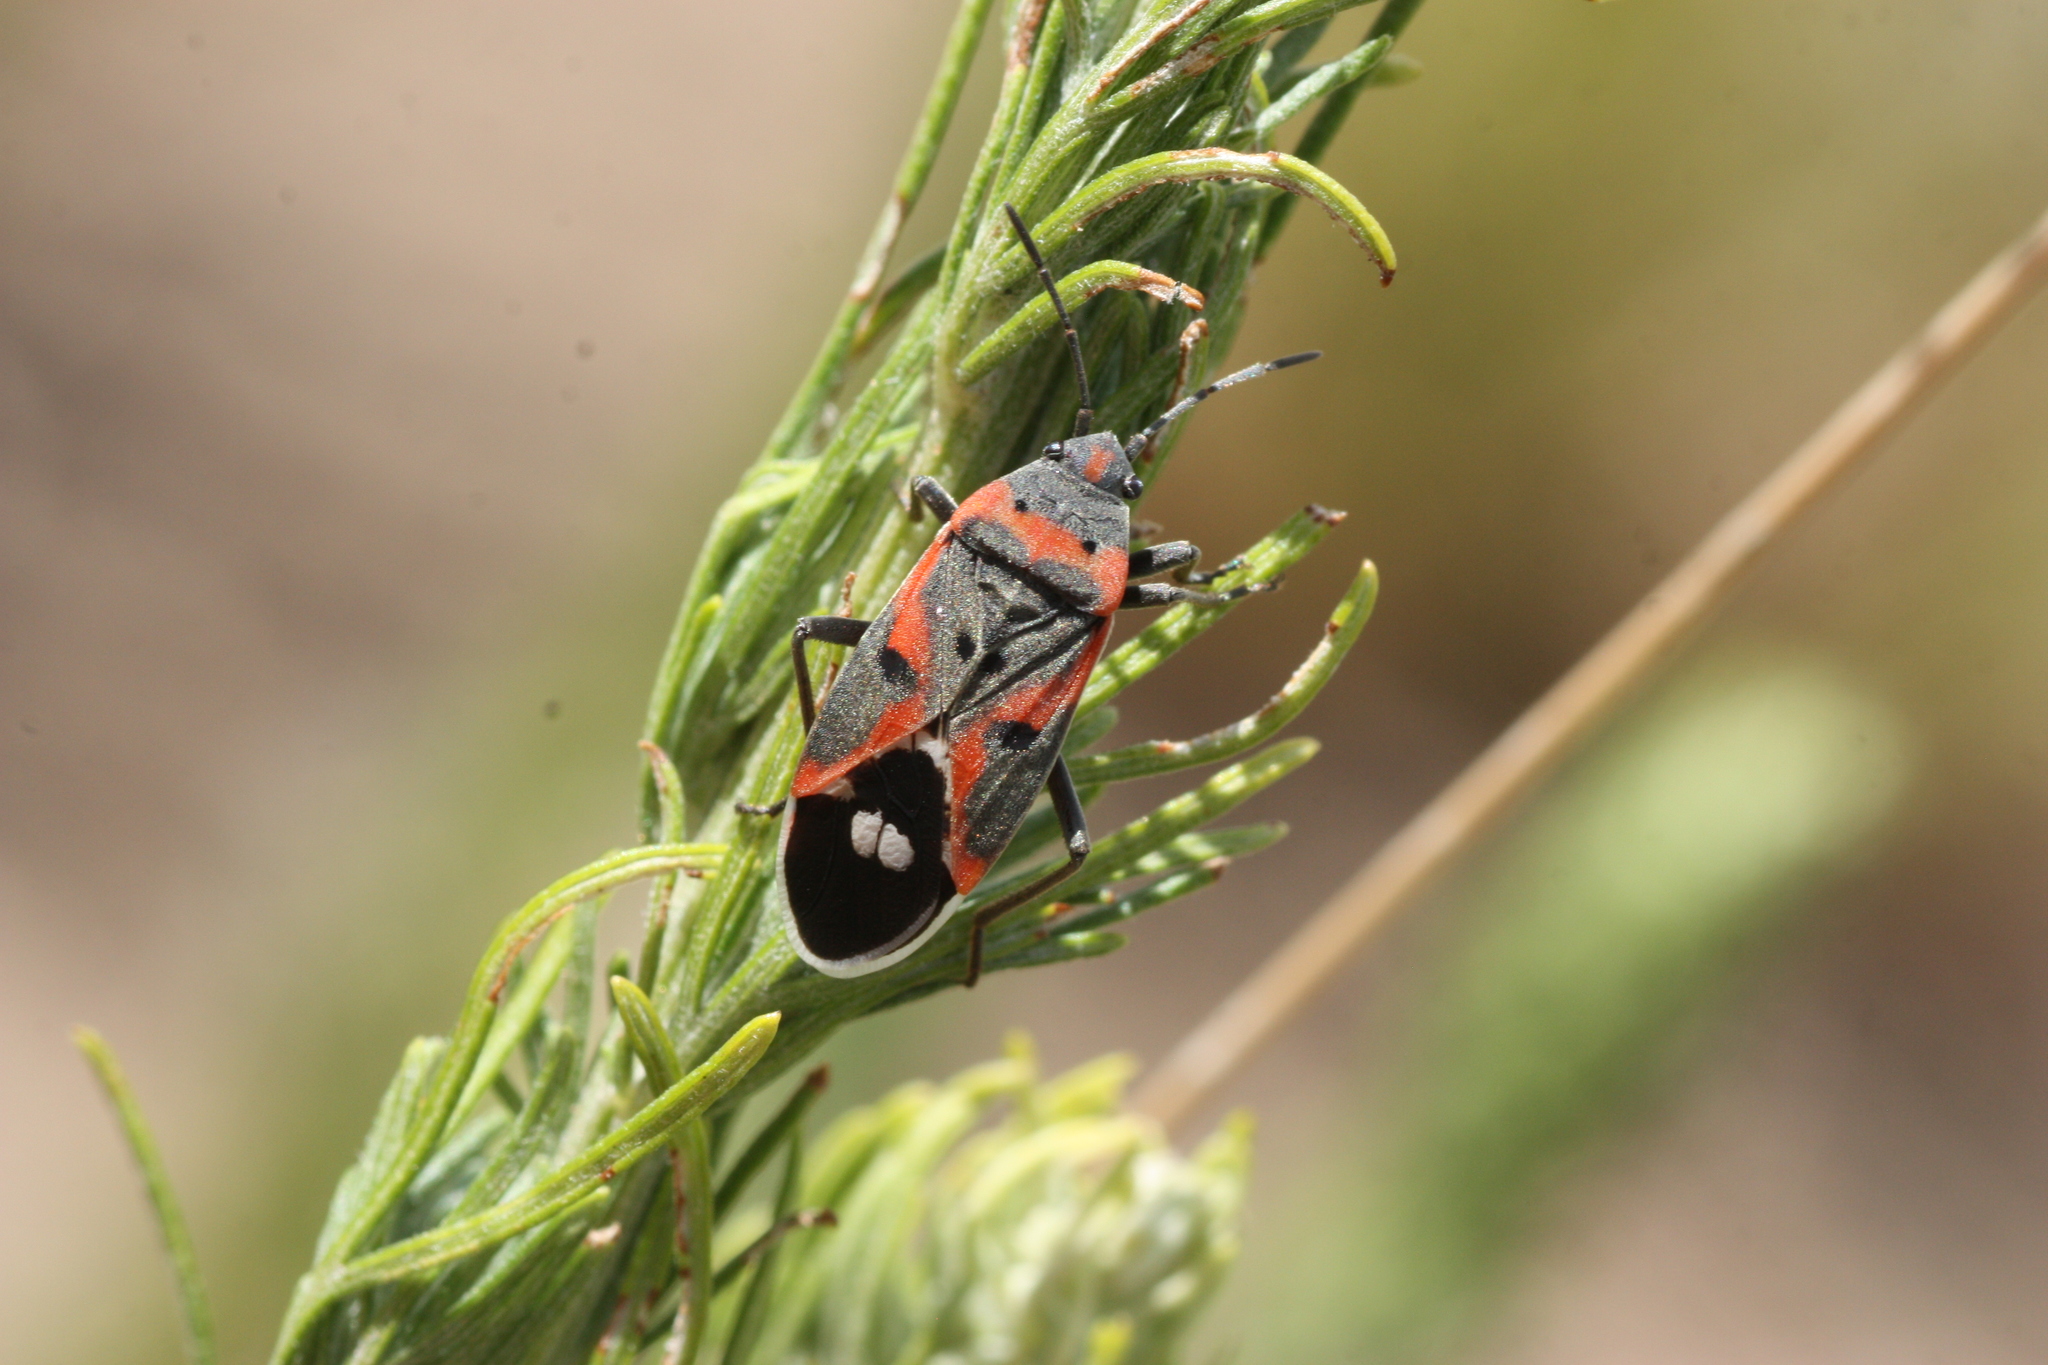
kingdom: Animalia
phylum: Arthropoda
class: Insecta
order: Hemiptera
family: Lygaeidae
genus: Lygaeus
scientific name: Lygaeus kalmii
